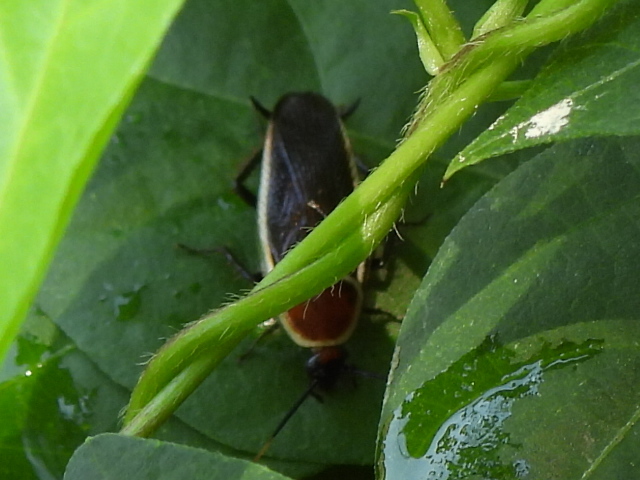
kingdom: Animalia
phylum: Arthropoda
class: Insecta
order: Blattodea
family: Ectobiidae
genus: Pseudomops
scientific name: Pseudomops septentrionalis
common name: Pale-bordered field cockroach
